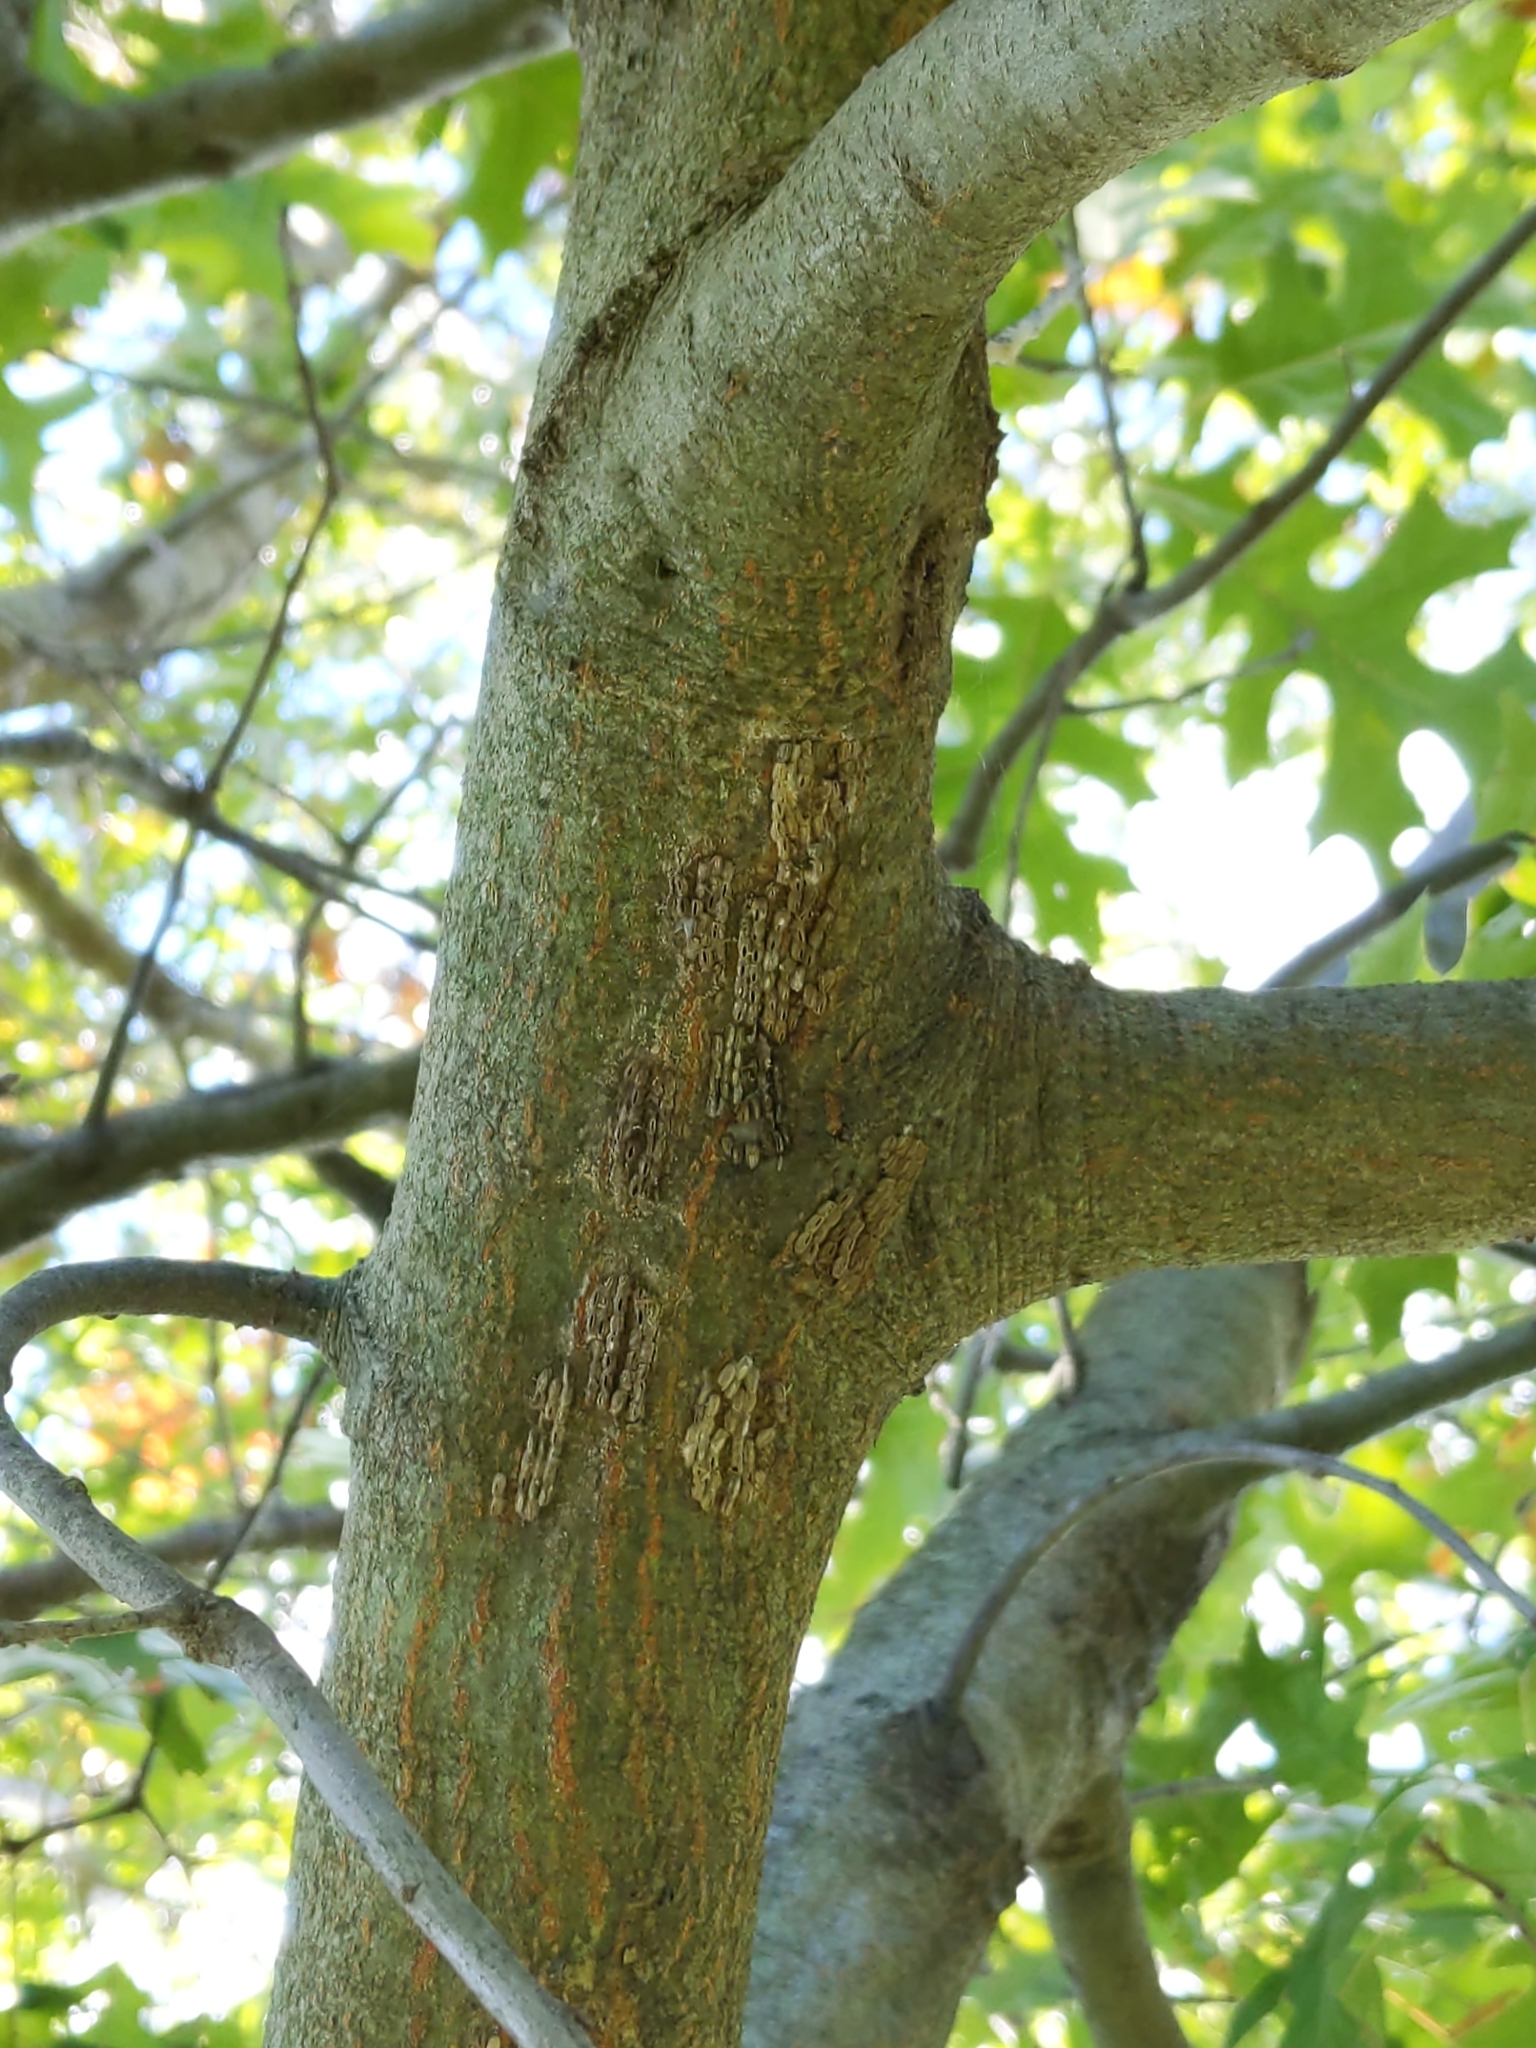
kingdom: Animalia
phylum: Arthropoda
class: Insecta
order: Hemiptera
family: Fulgoridae
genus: Lycorma
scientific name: Lycorma delicatula
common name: Spotted lanternfly
